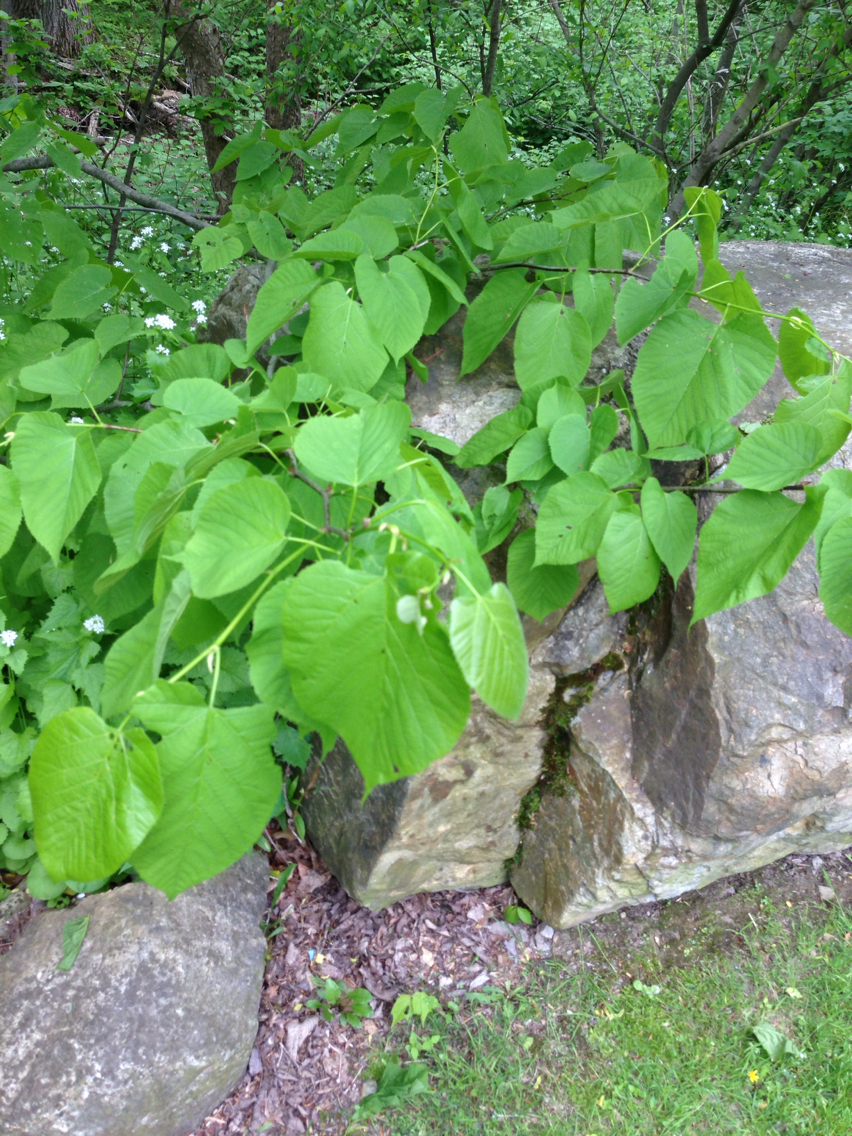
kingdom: Plantae
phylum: Tracheophyta
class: Magnoliopsida
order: Malvales
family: Malvaceae
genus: Tilia
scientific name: Tilia americana
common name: Basswood
